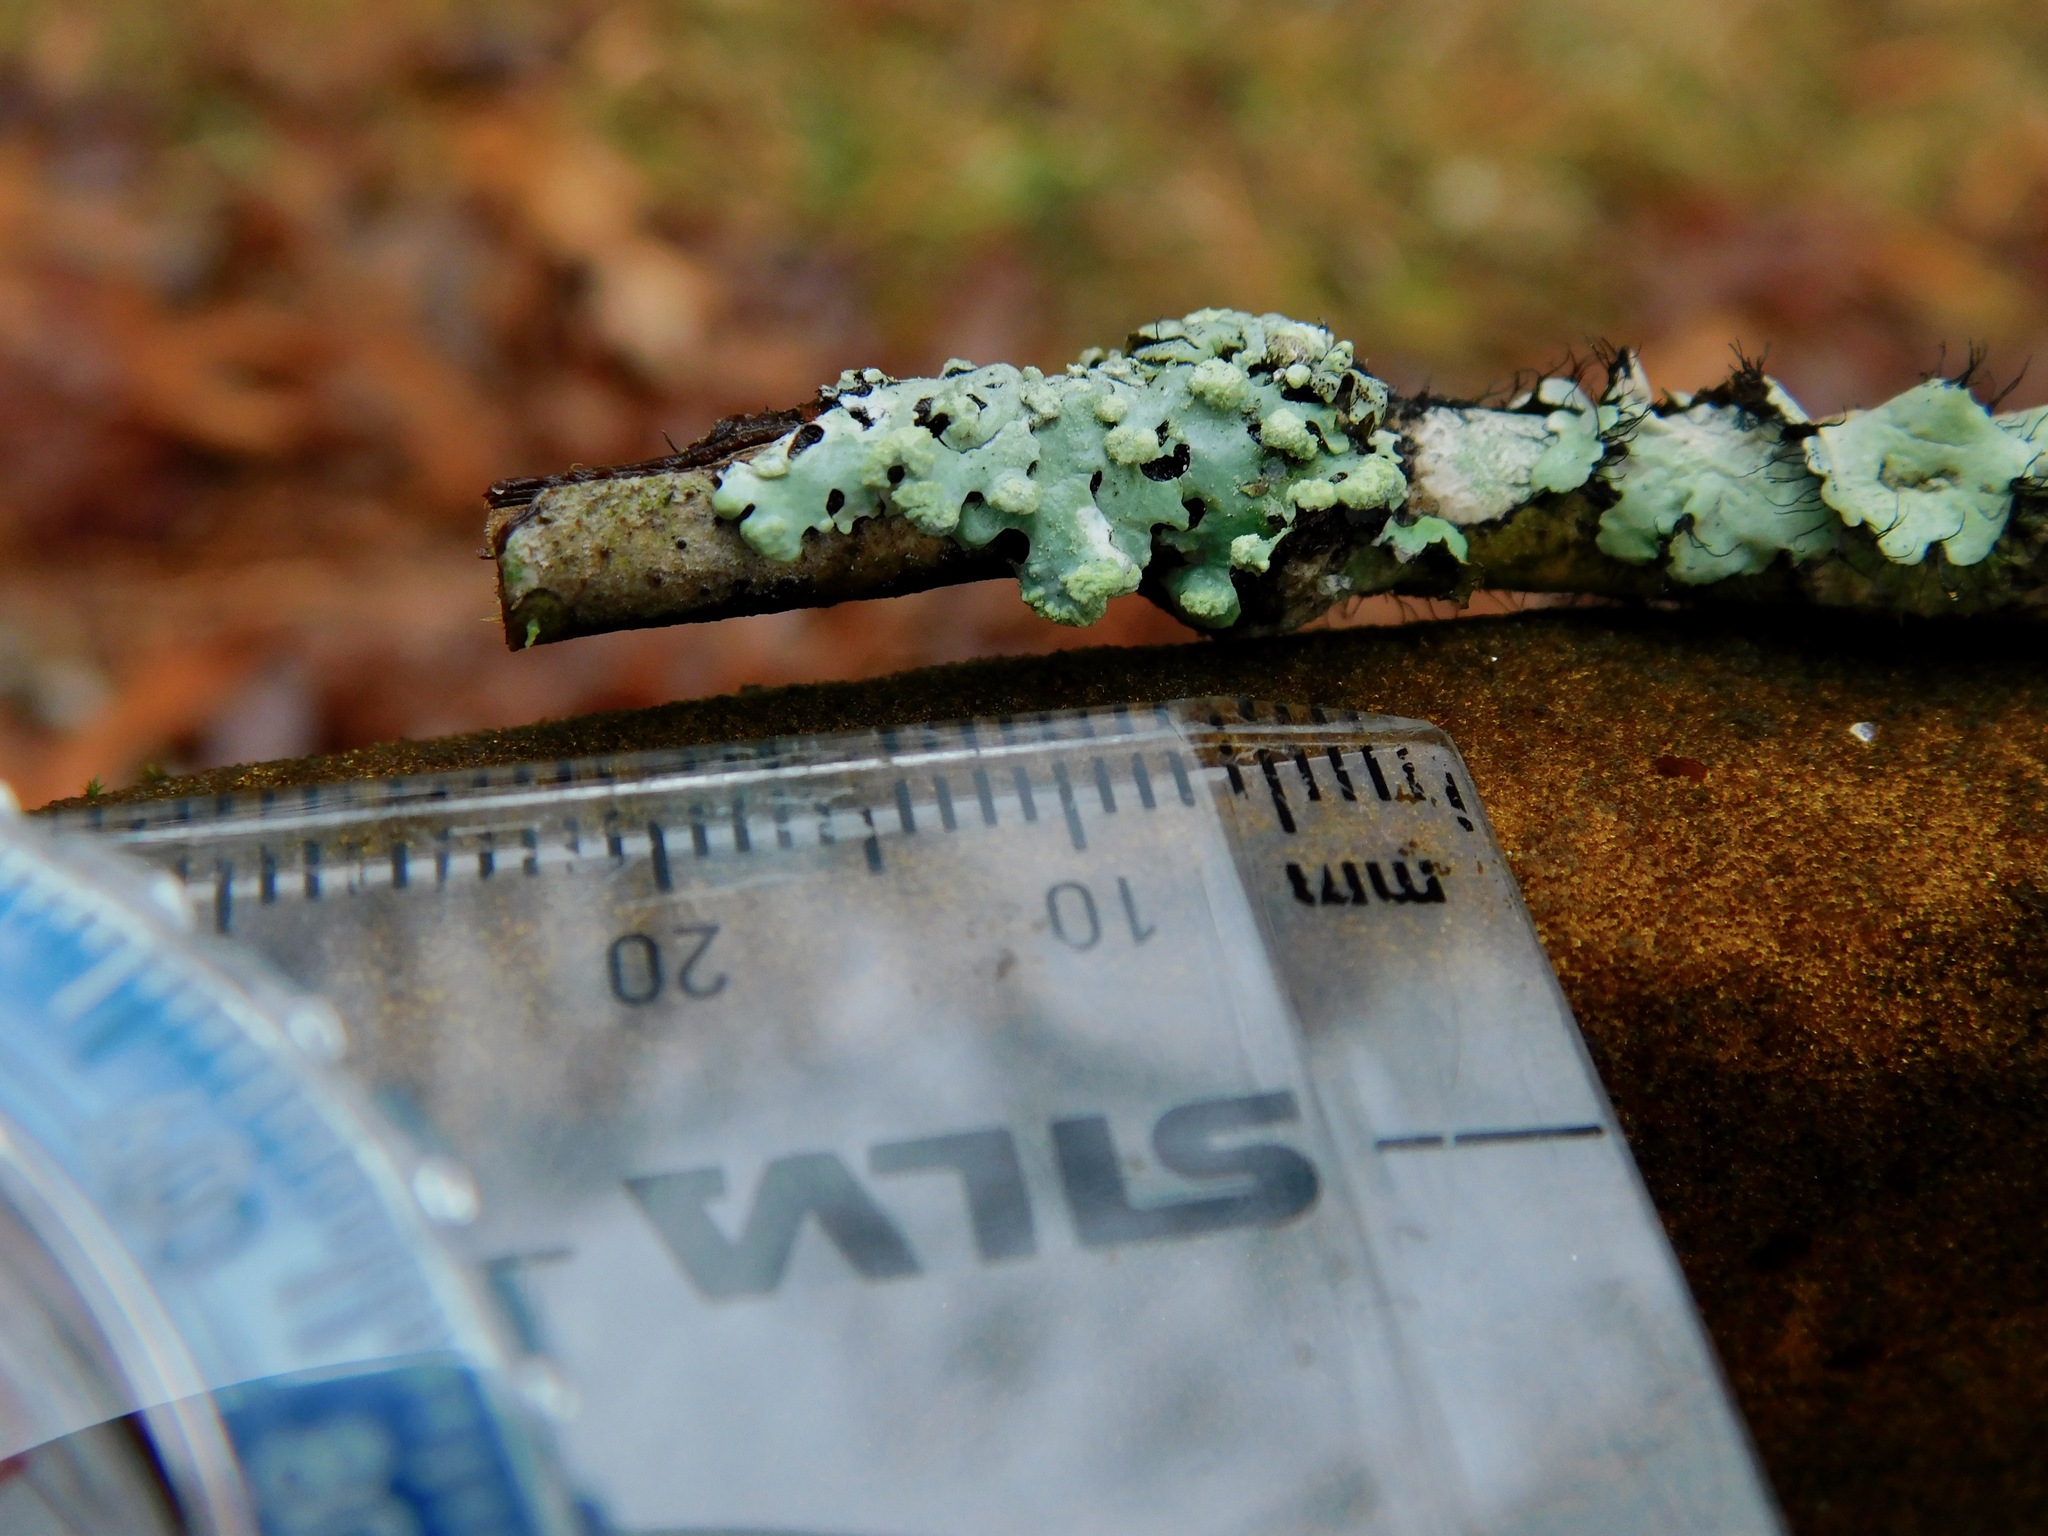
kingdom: Fungi
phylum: Ascomycota
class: Lecanoromycetes
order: Lecanorales
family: Parmeliaceae
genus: Myelochroa
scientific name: Myelochroa metarevoluta
